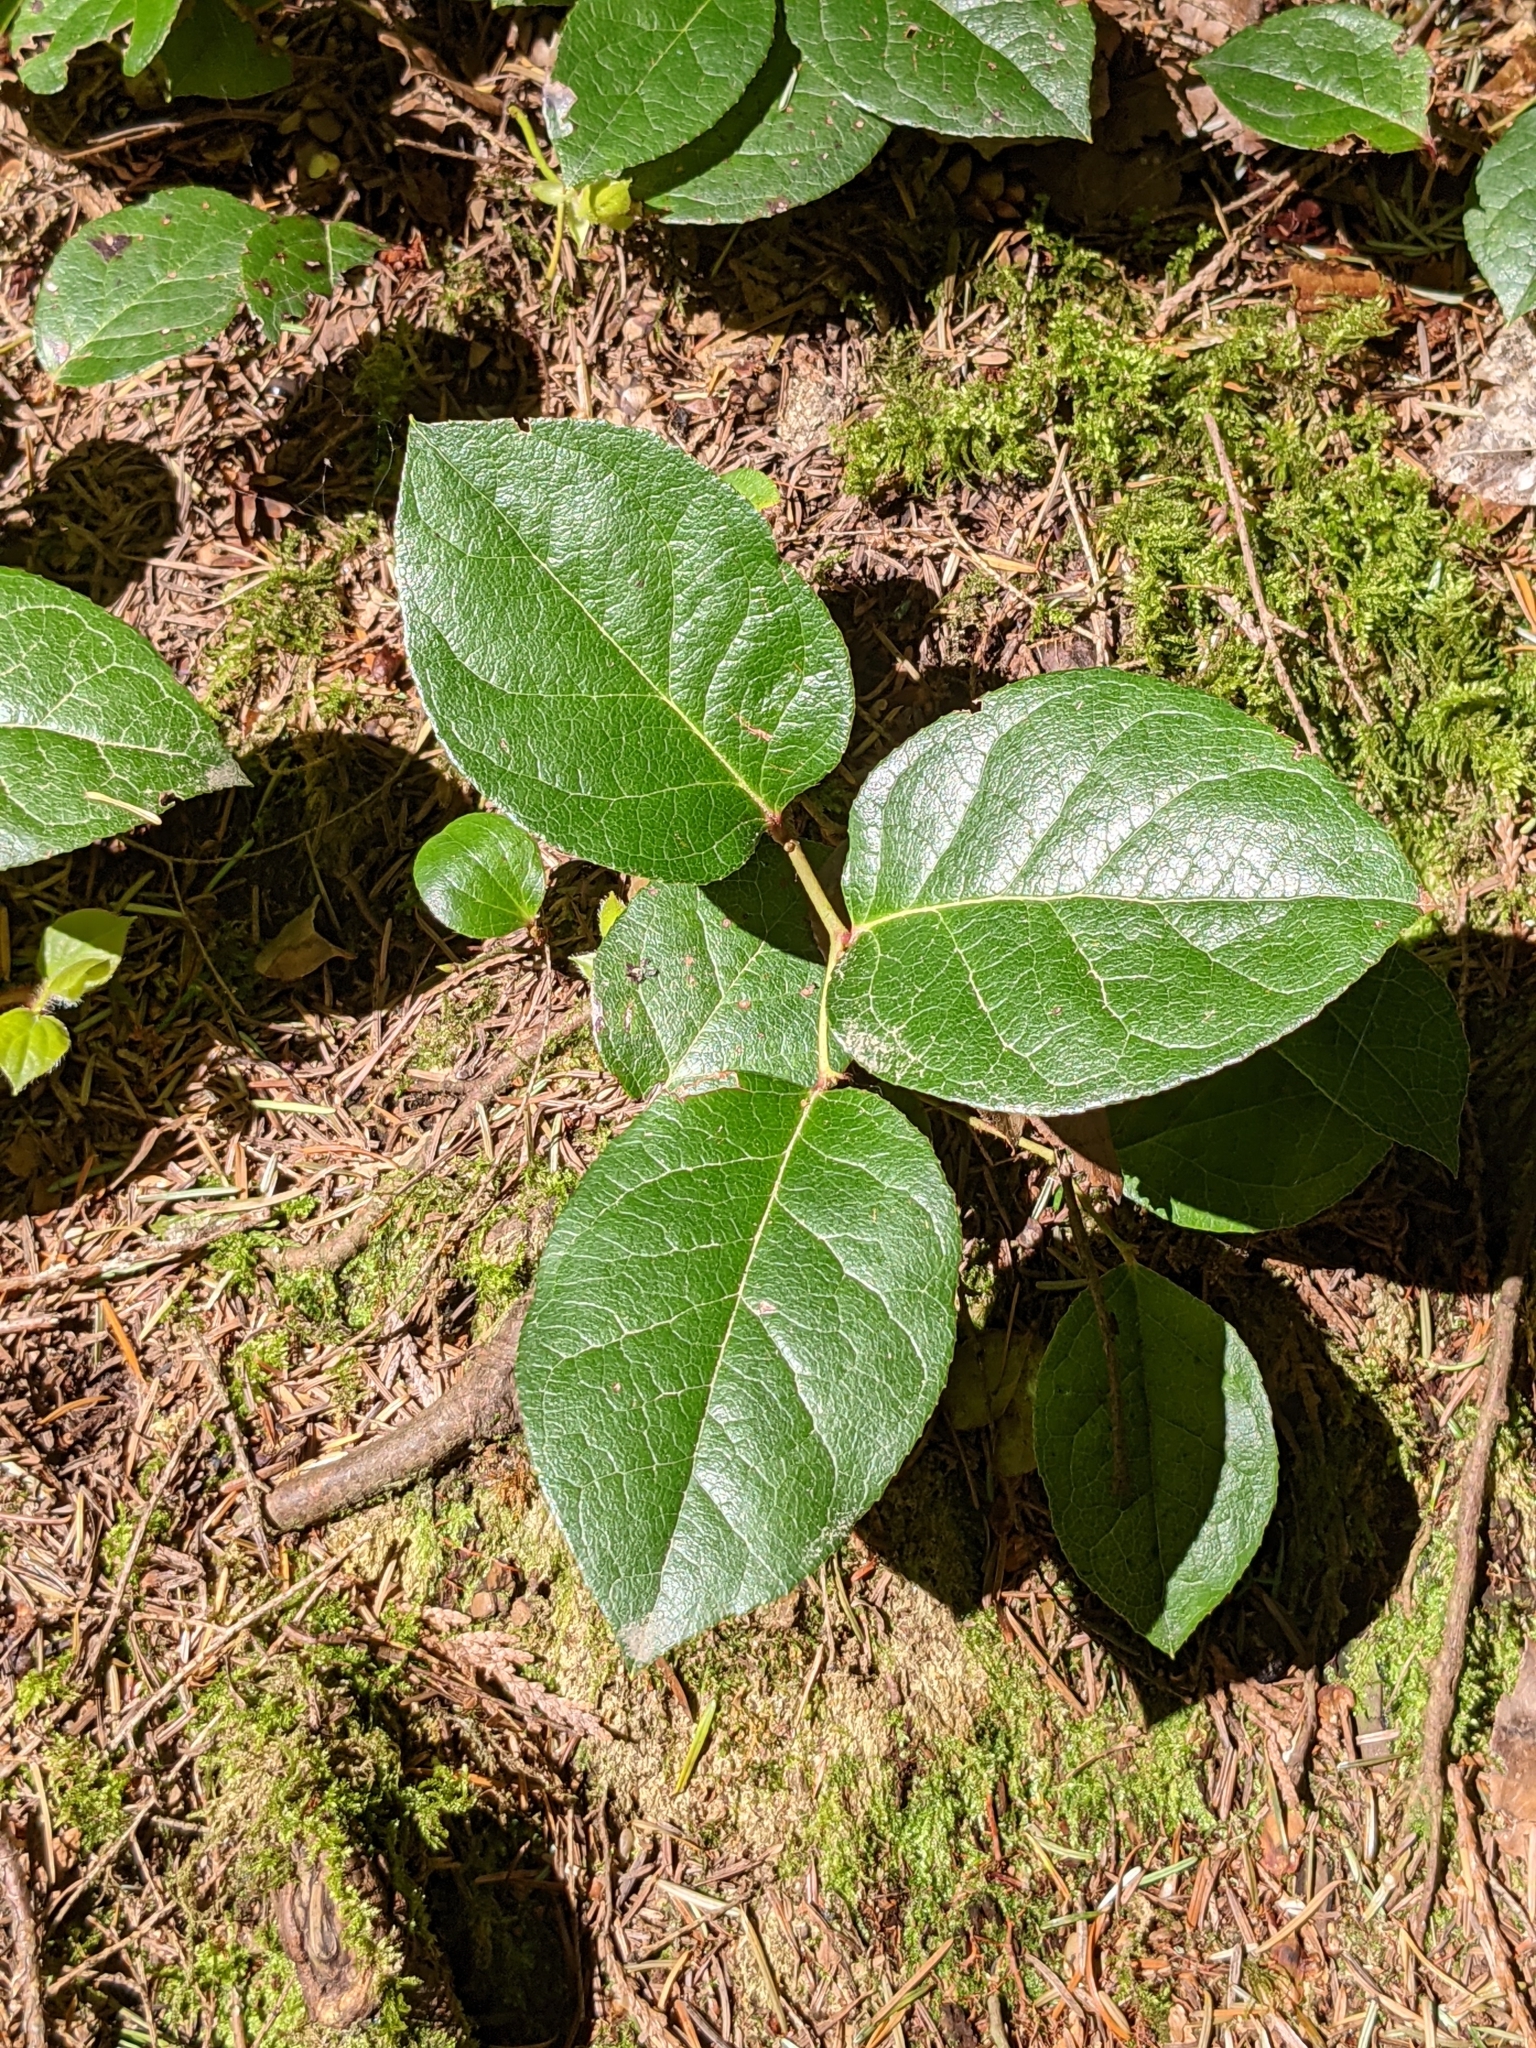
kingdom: Plantae
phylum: Tracheophyta
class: Magnoliopsida
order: Ericales
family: Ericaceae
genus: Gaultheria
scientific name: Gaultheria shallon
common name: Shallon
